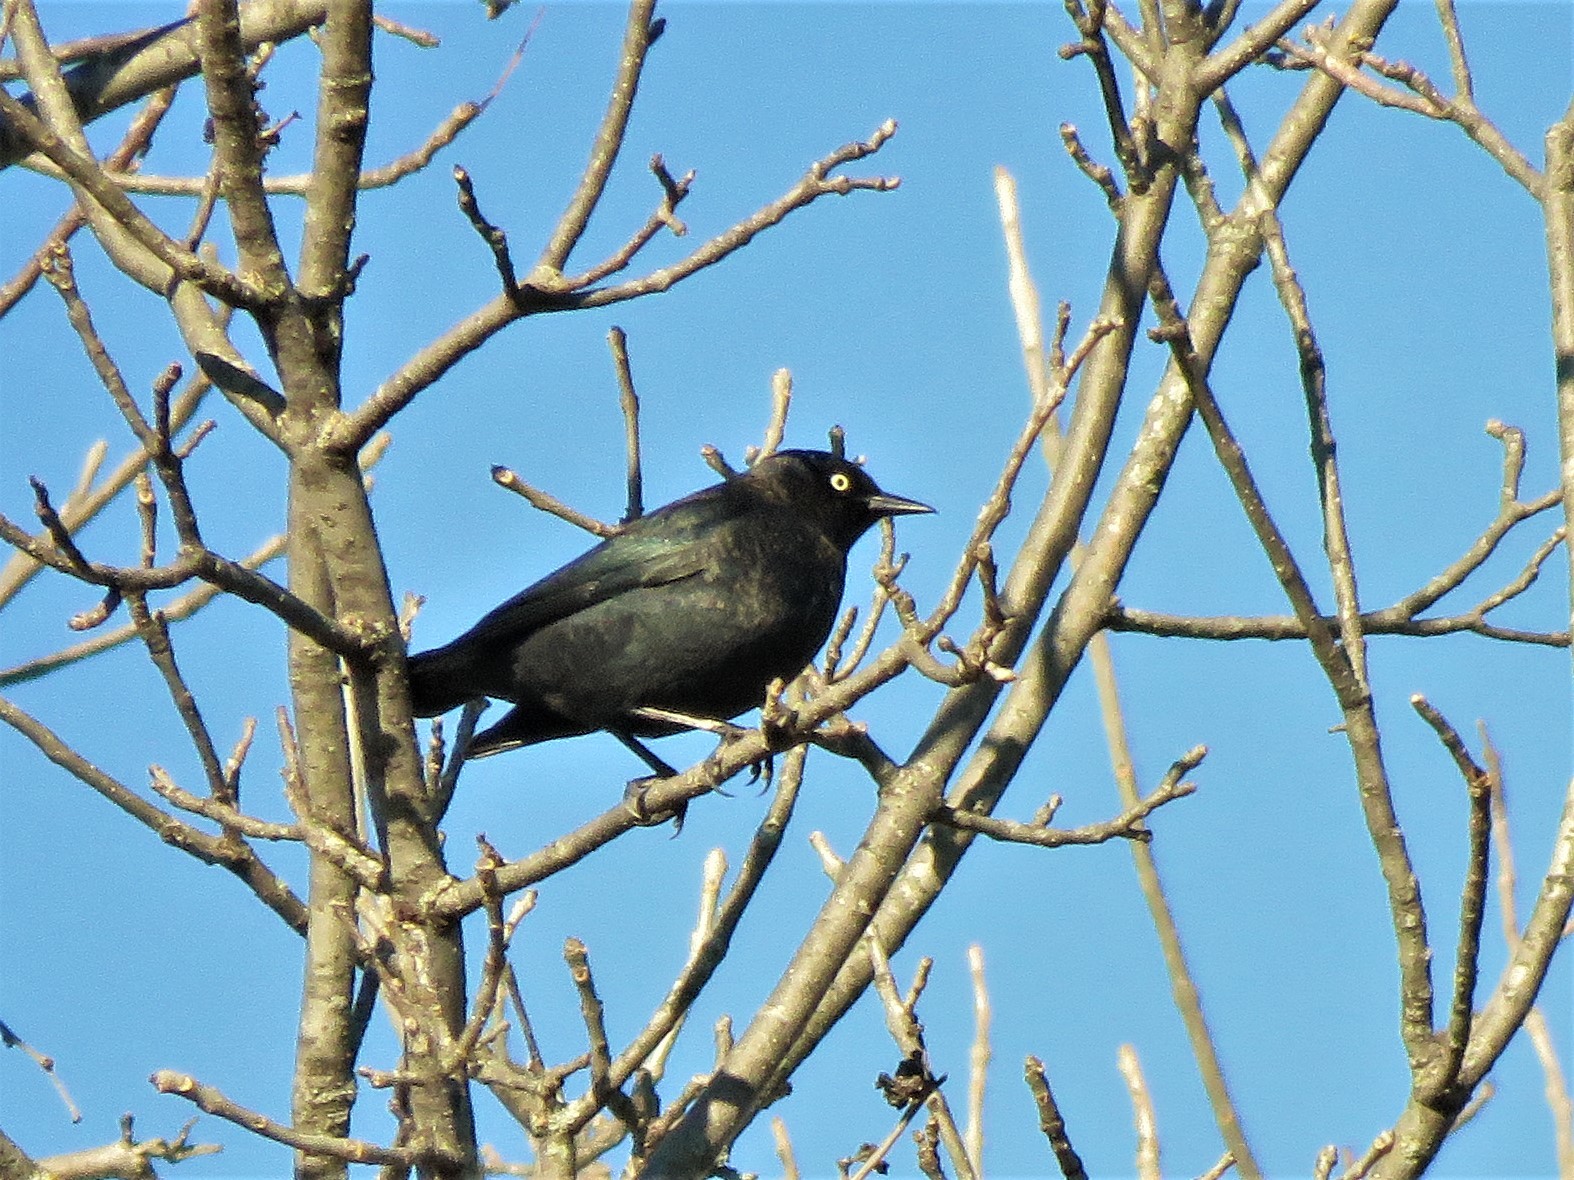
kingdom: Animalia
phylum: Chordata
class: Aves
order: Passeriformes
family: Icteridae
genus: Euphagus
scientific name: Euphagus carolinus
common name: Rusty blackbird
